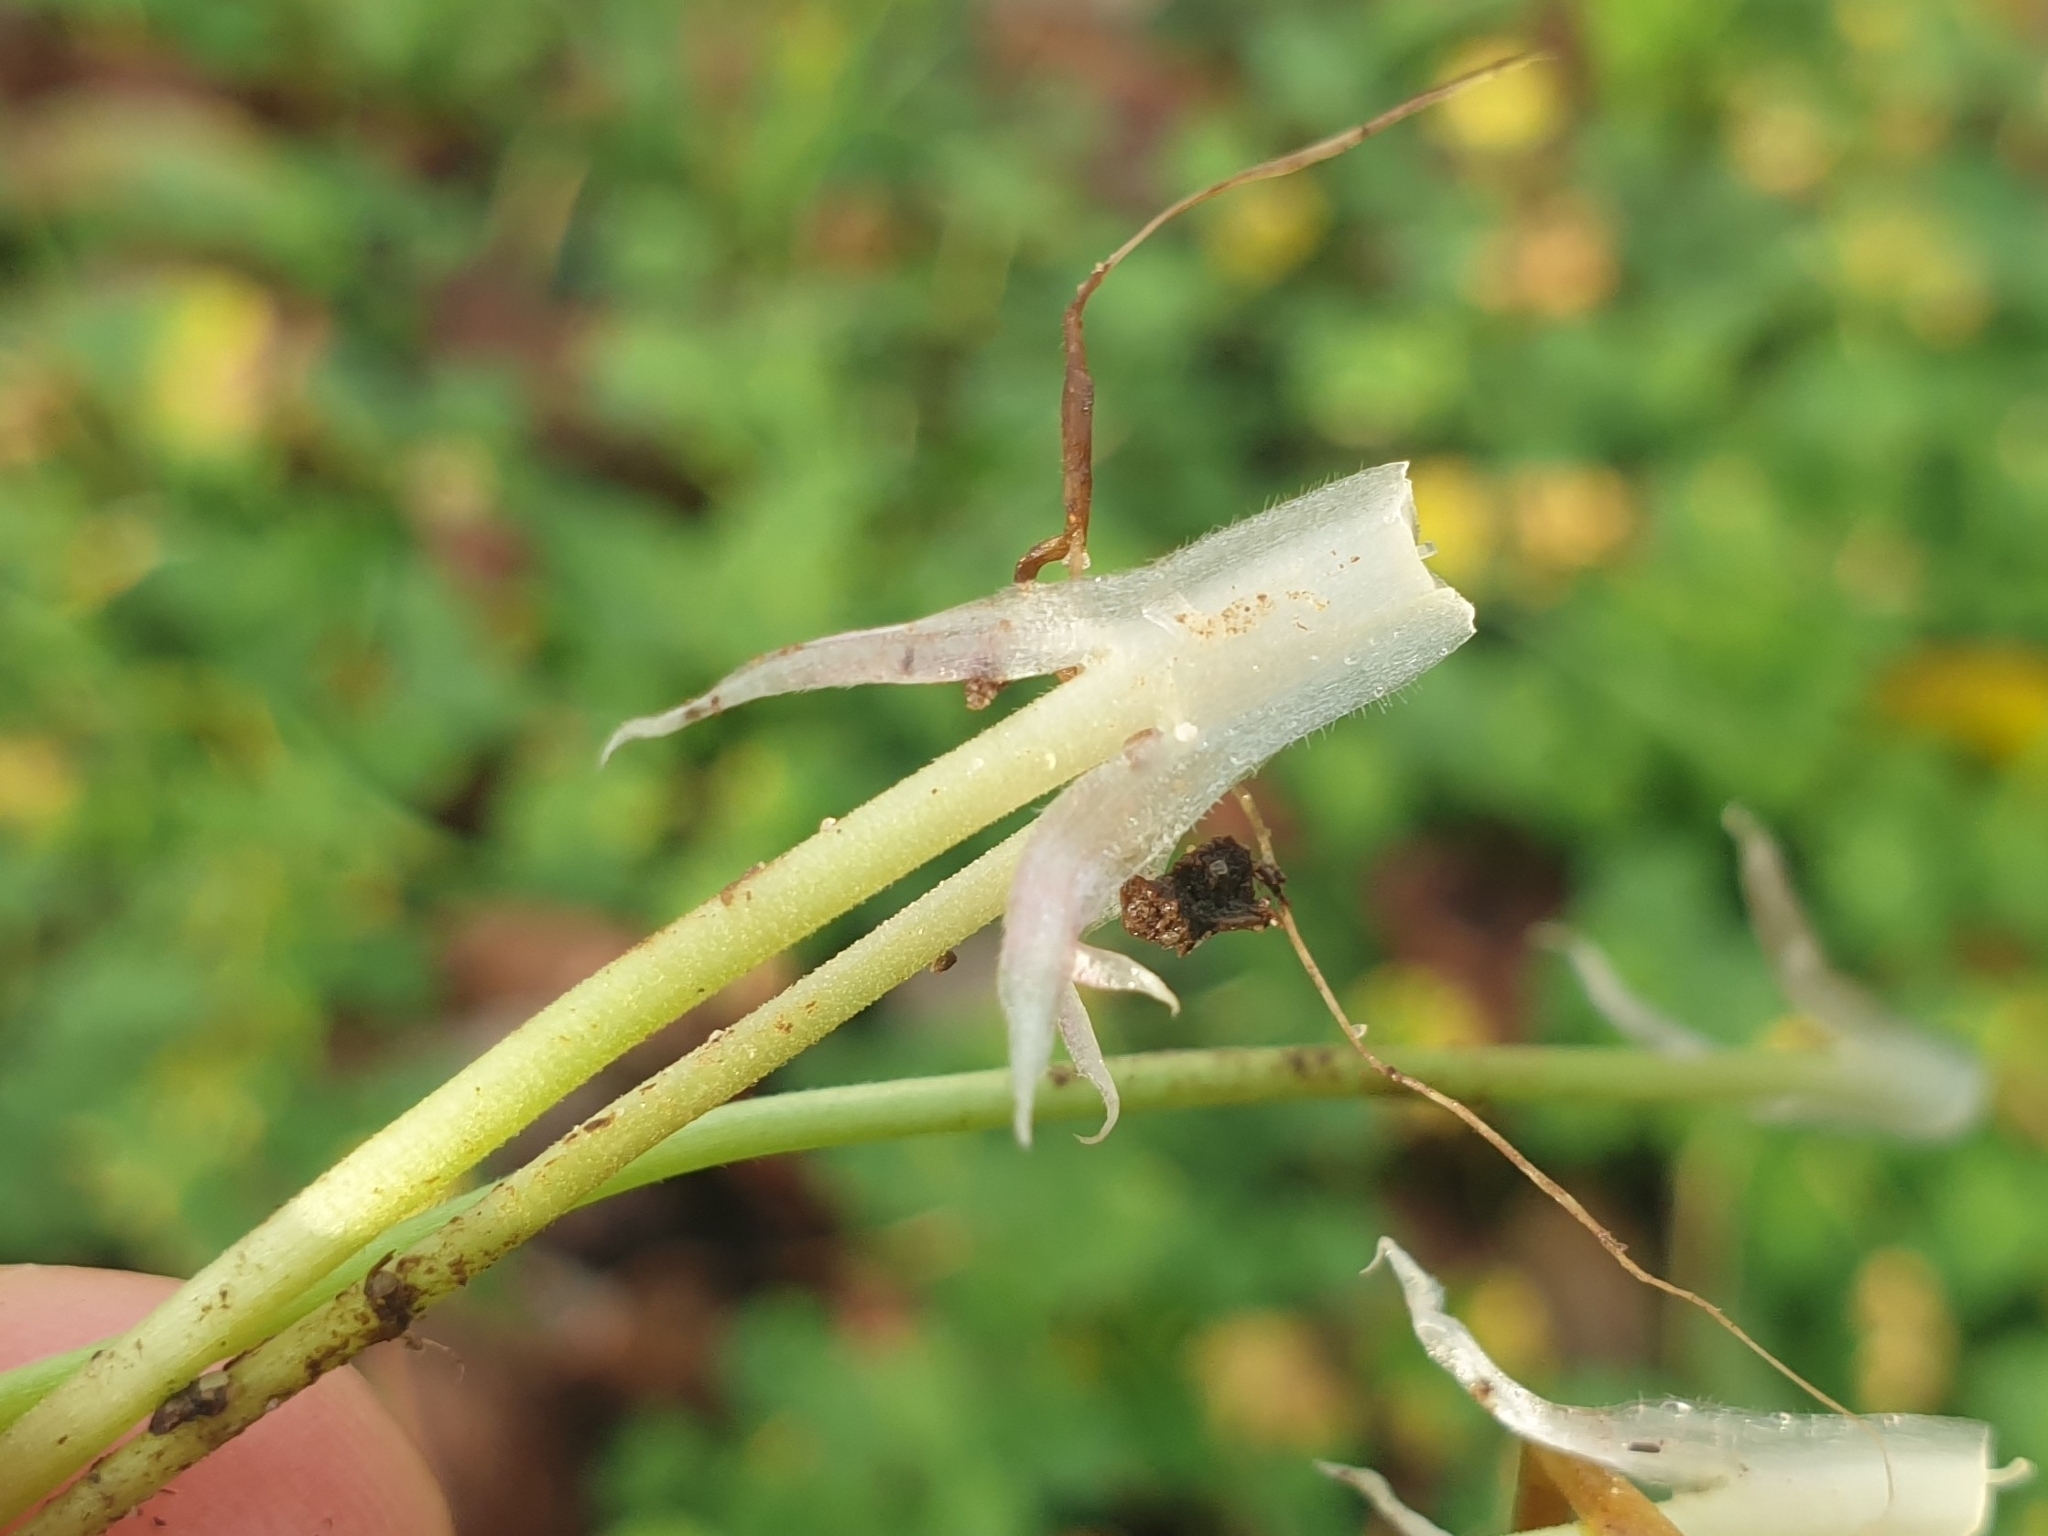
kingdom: Plantae
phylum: Tracheophyta
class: Magnoliopsida
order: Geraniales
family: Geraniaceae
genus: Geranium
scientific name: Geranium pusillum
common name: Small geranium
